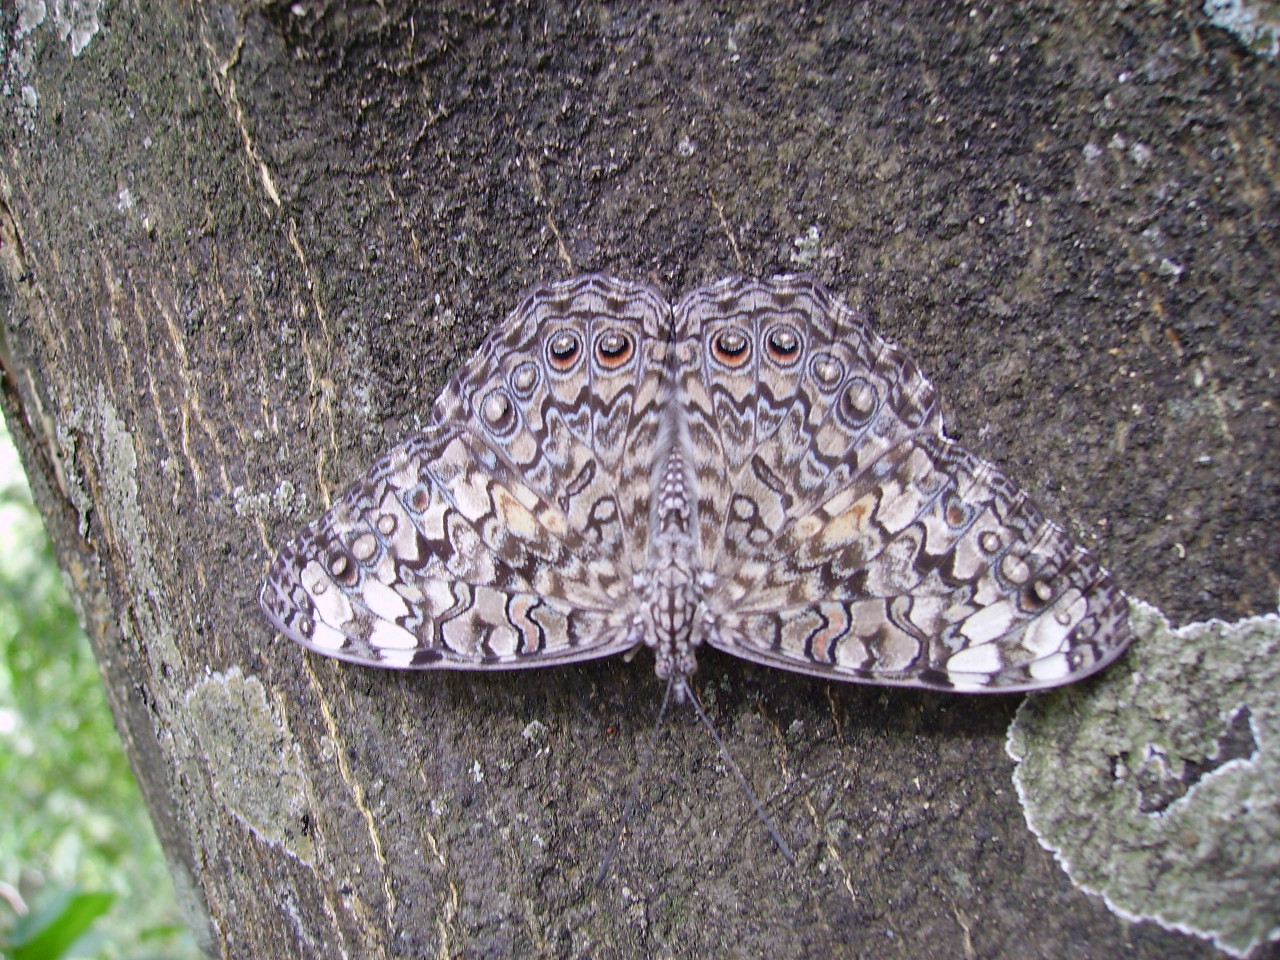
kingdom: Animalia
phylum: Arthropoda
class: Insecta
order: Lepidoptera
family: Nymphalidae
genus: Hamadryas
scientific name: Hamadryas februa
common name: Gray cracker
